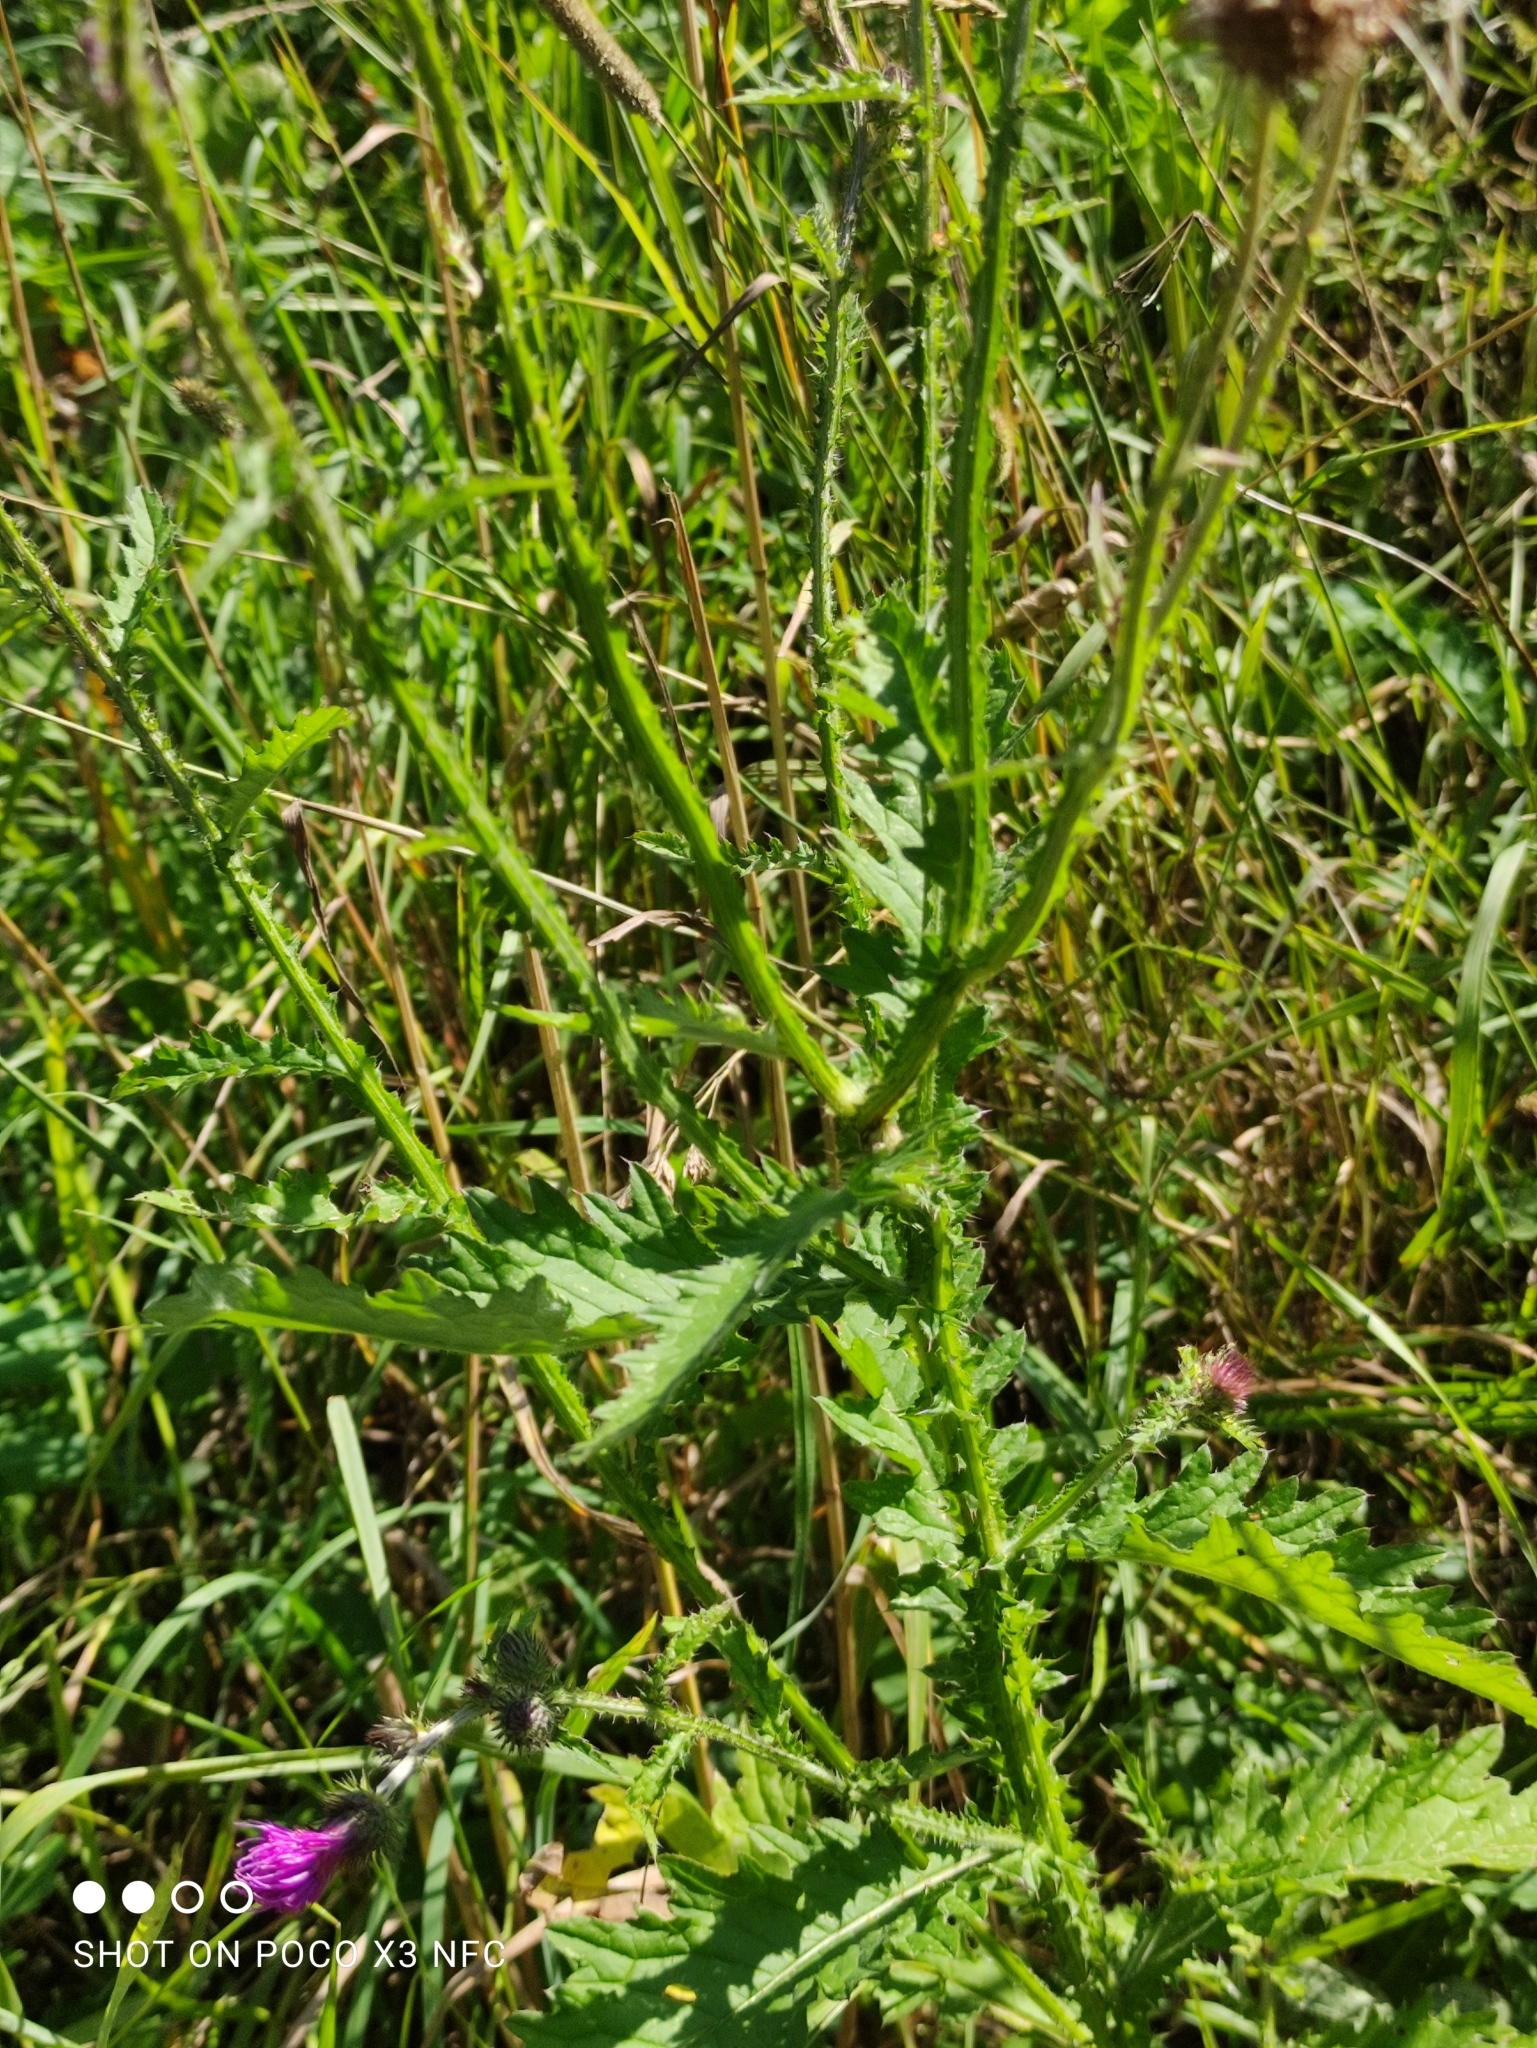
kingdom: Plantae
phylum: Tracheophyta
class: Magnoliopsida
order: Asterales
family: Asteraceae
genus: Carduus
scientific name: Carduus crispus
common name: Welted thistle
